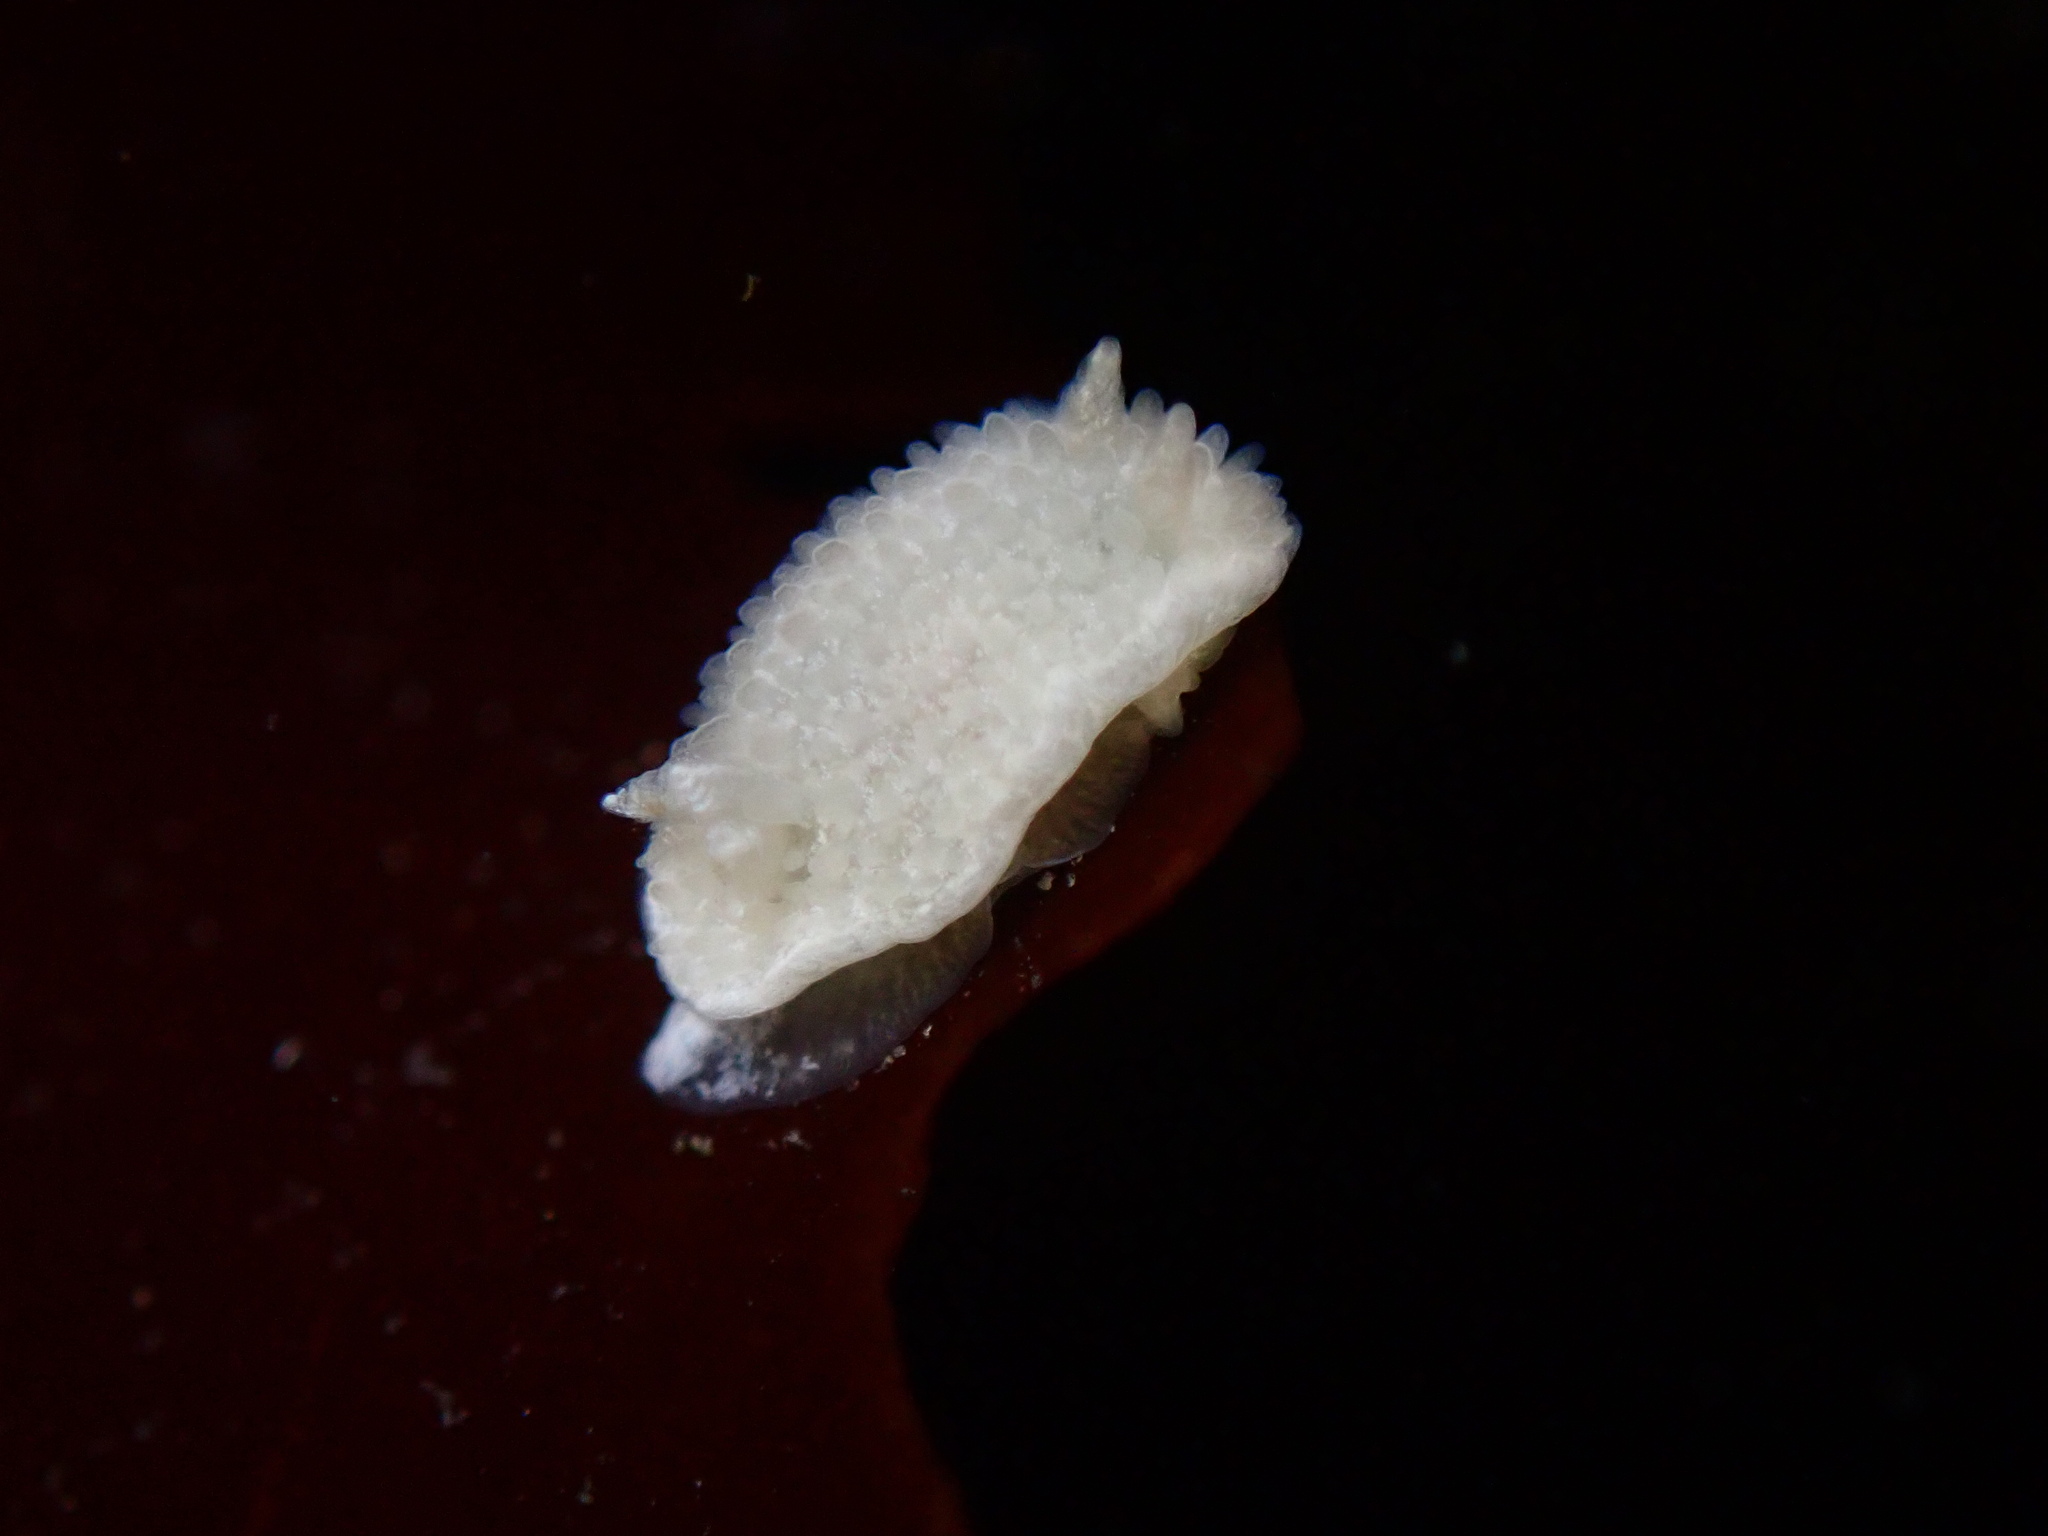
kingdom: Animalia
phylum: Mollusca
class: Gastropoda
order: Nudibranchia
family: Calycidorididae
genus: Diaphorodoris
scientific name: Diaphorodoris lirulatocauda
